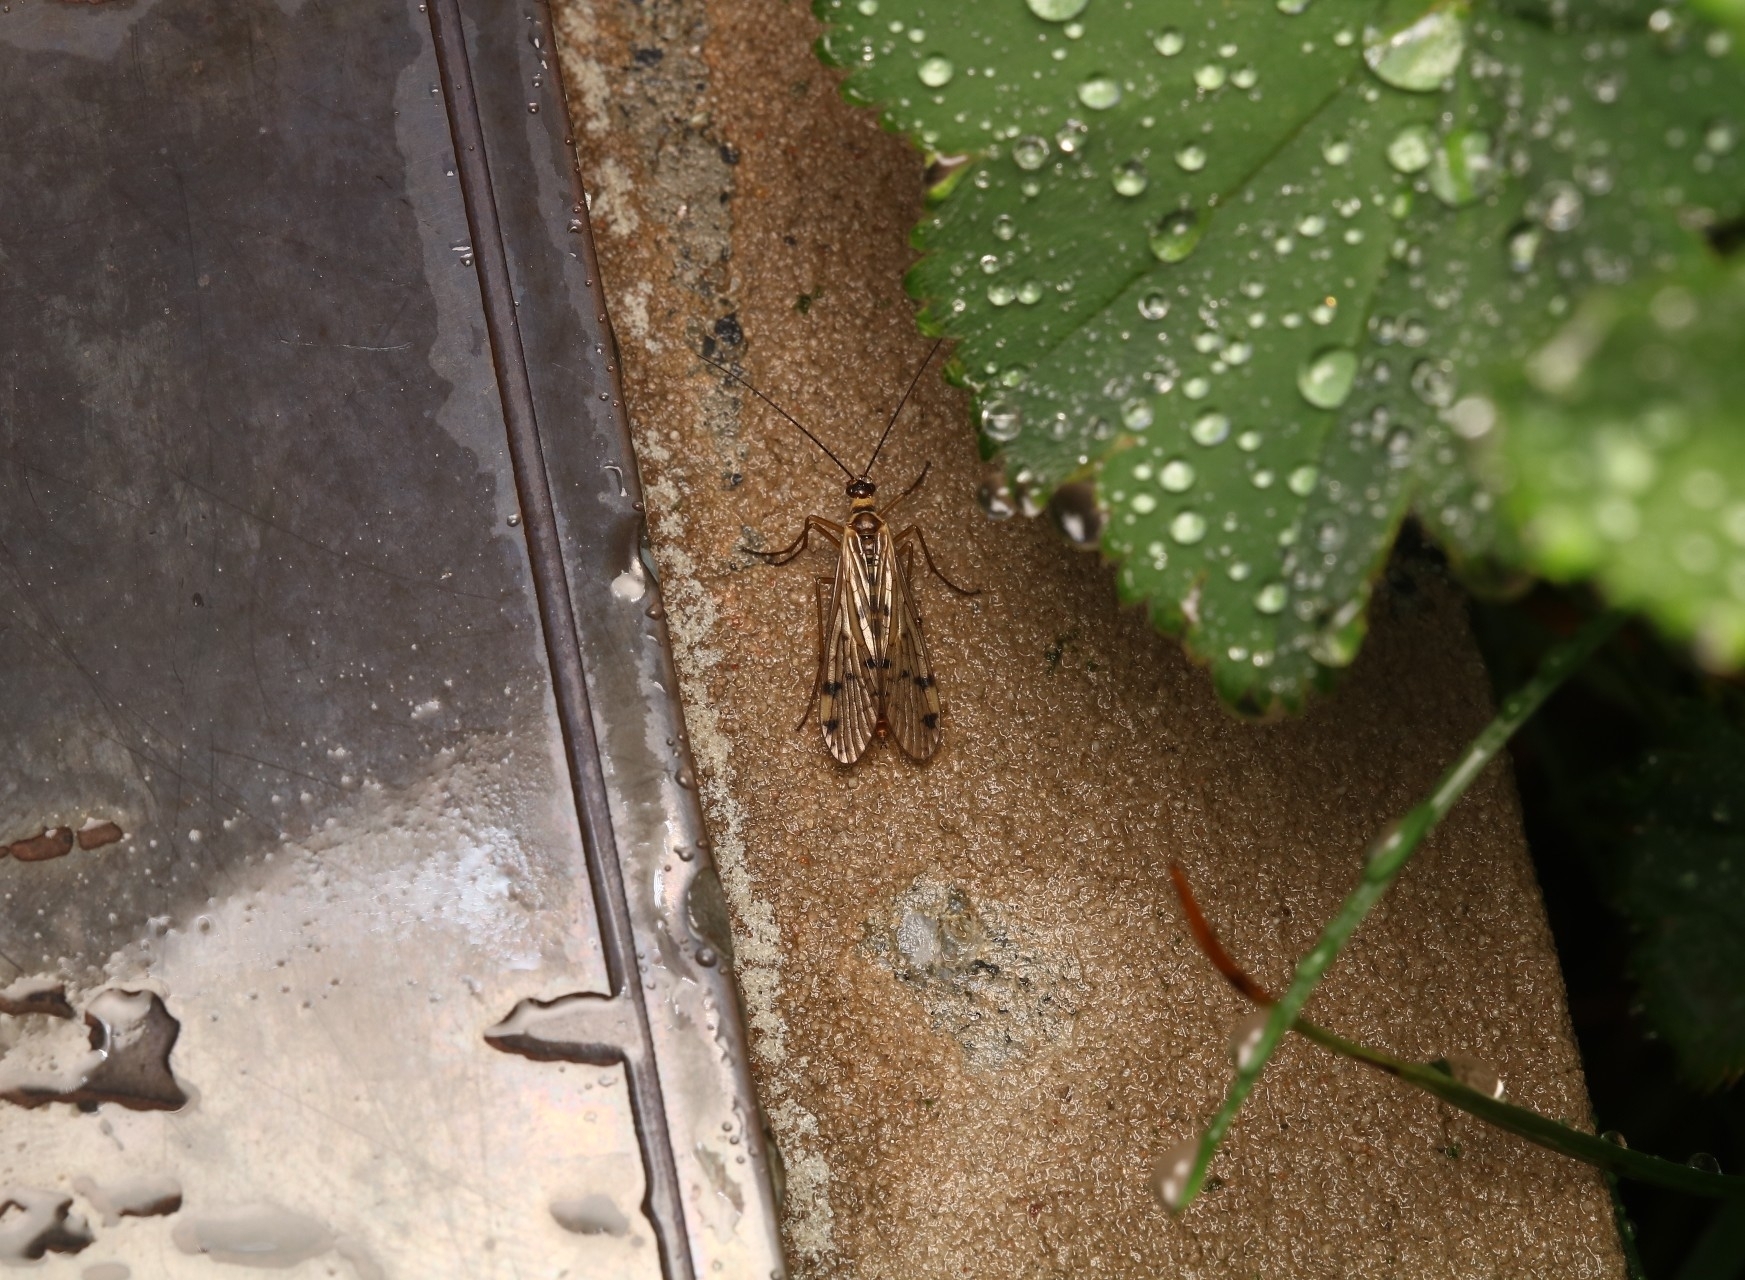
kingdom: Animalia
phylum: Arthropoda
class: Insecta
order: Mecoptera
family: Panorpidae
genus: Panorpa
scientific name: Panorpa alpina
